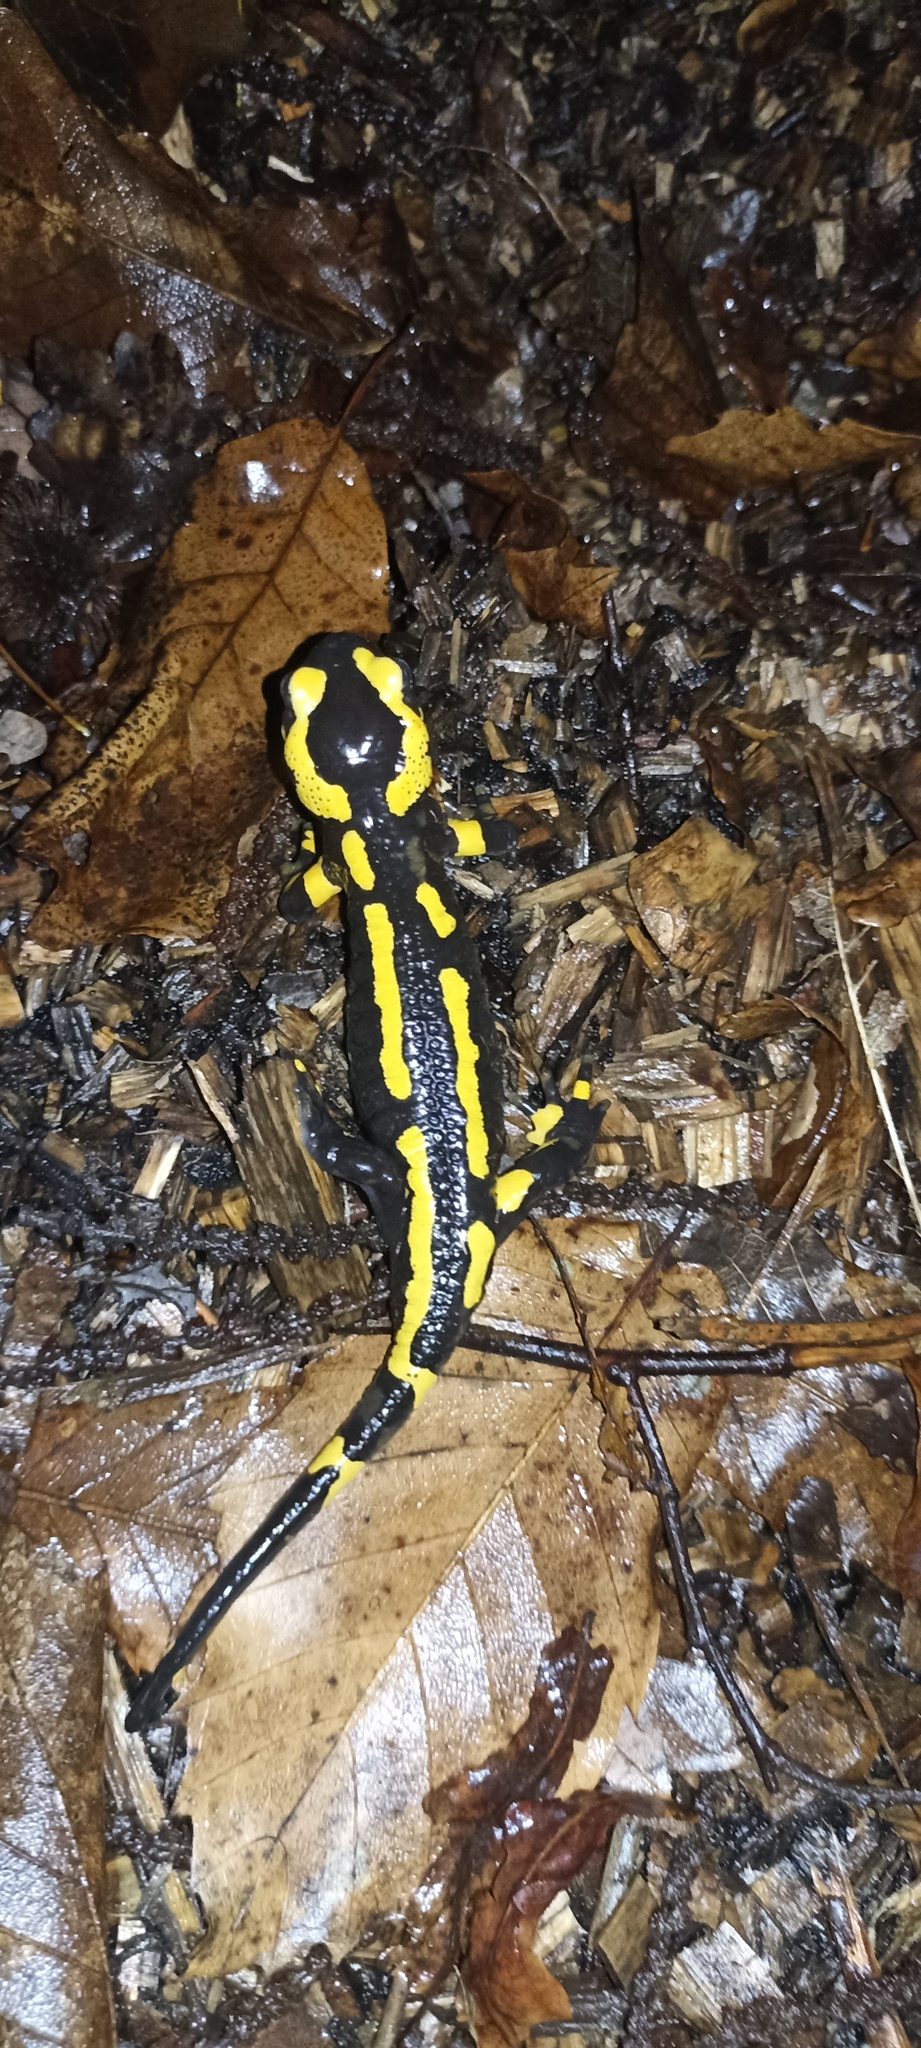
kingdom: Animalia
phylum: Chordata
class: Amphibia
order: Caudata
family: Salamandridae
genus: Salamandra
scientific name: Salamandra salamandra
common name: Fire salamander
